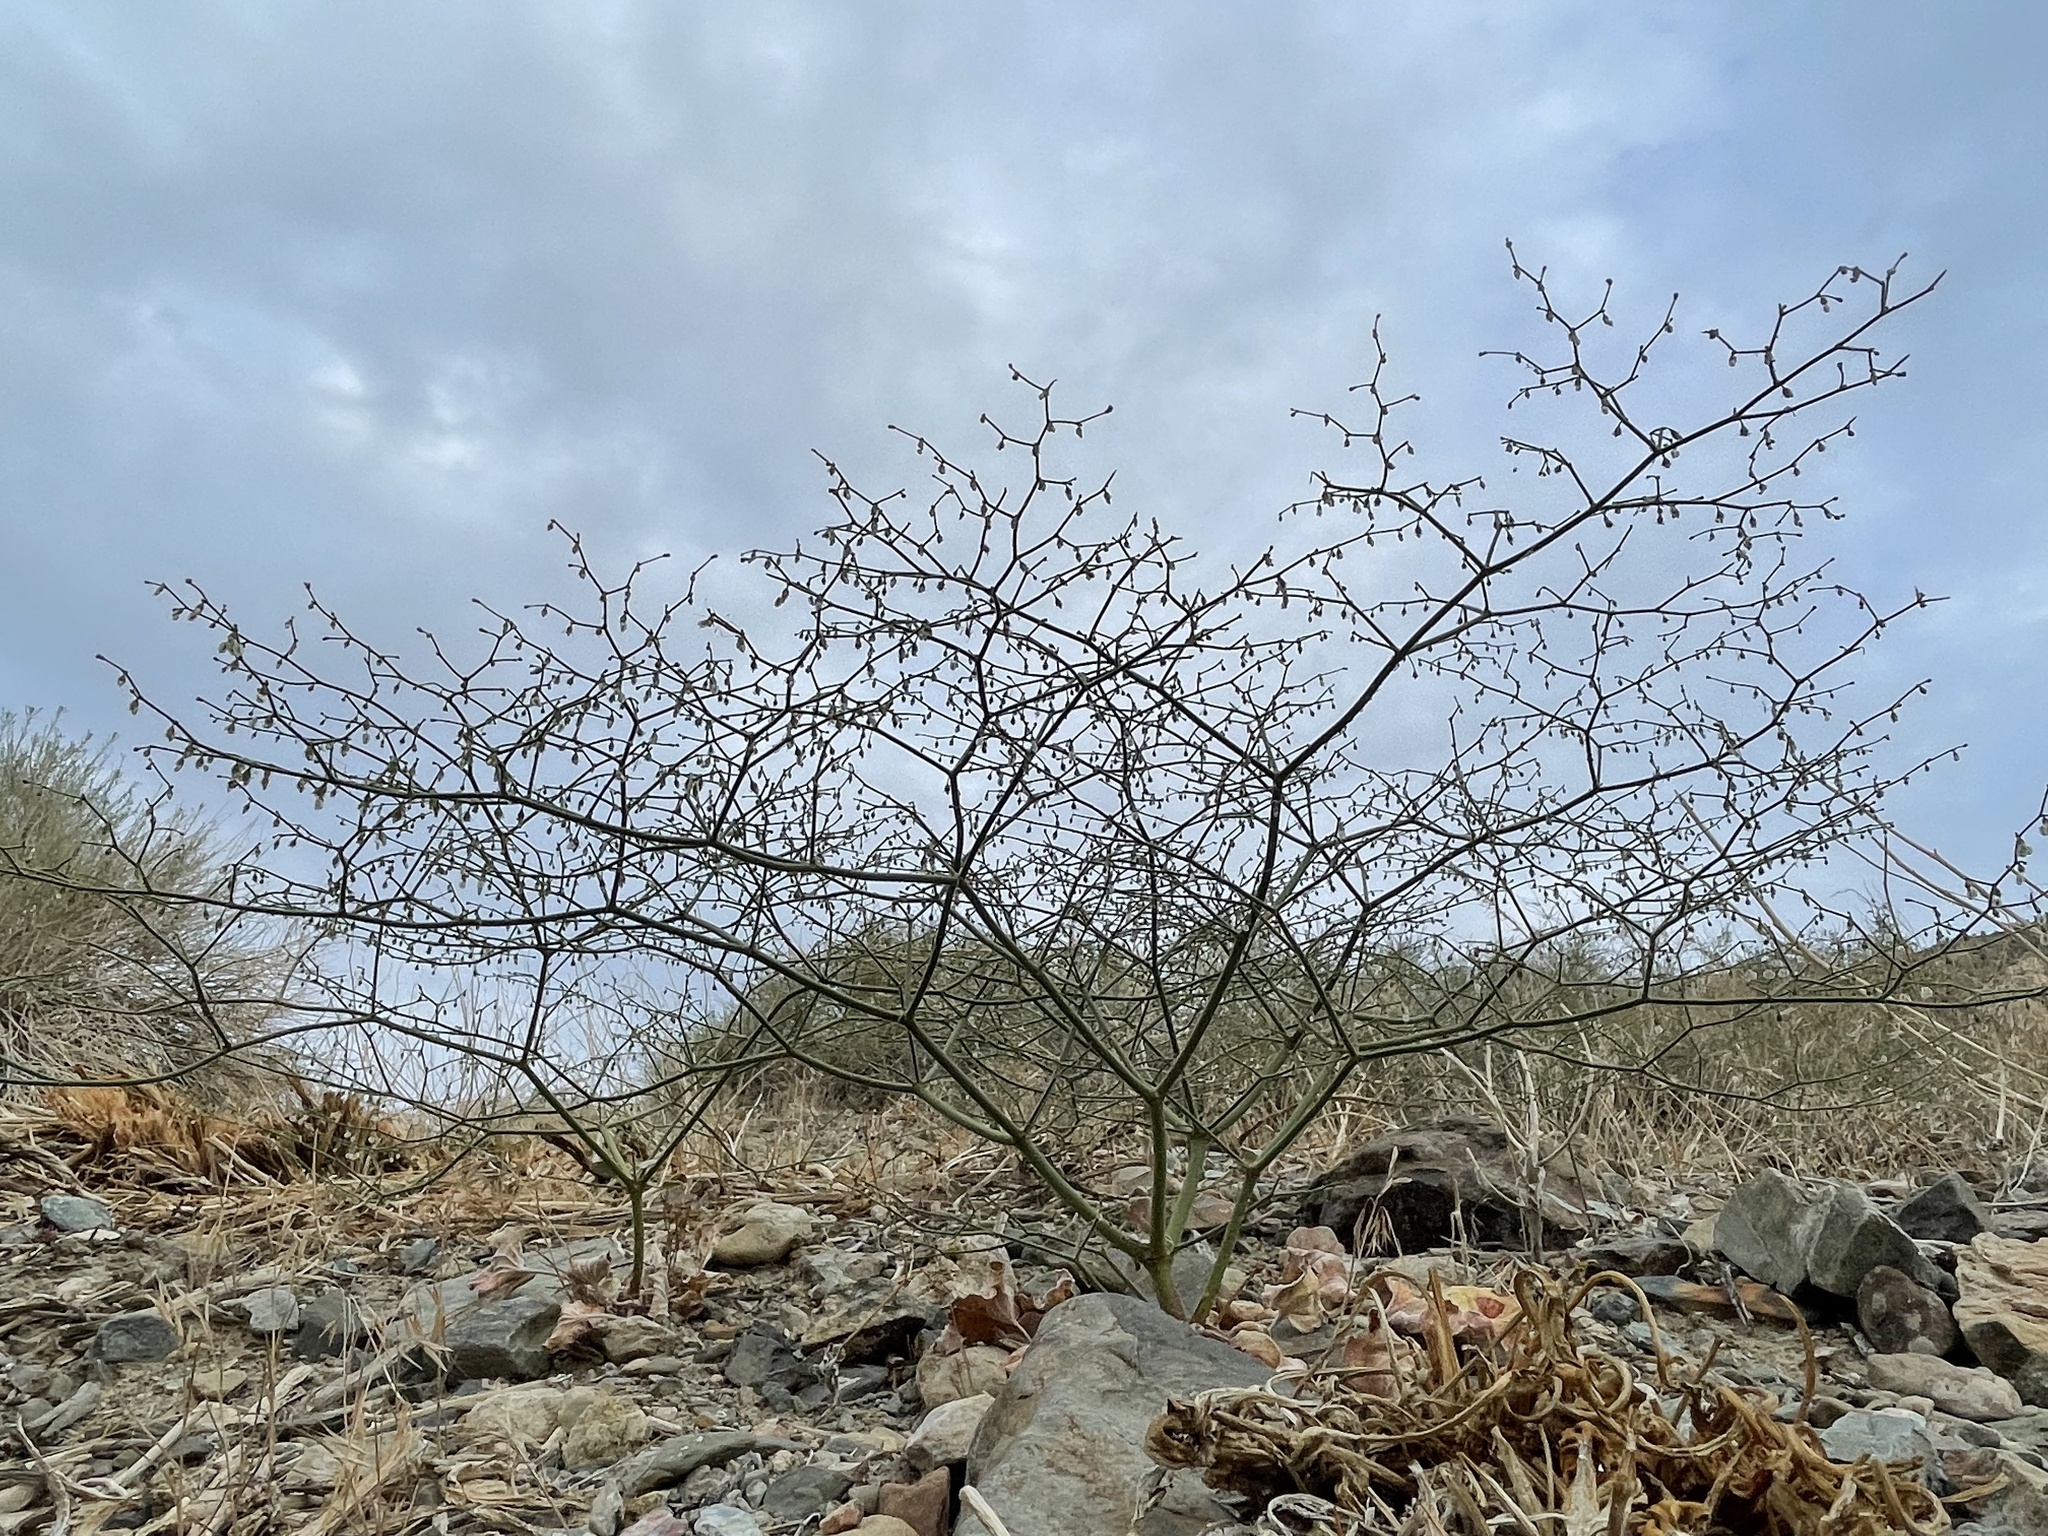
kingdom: Plantae
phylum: Tracheophyta
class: Magnoliopsida
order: Caryophyllales
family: Polygonaceae
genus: Eriogonum
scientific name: Eriogonum brachypodum
